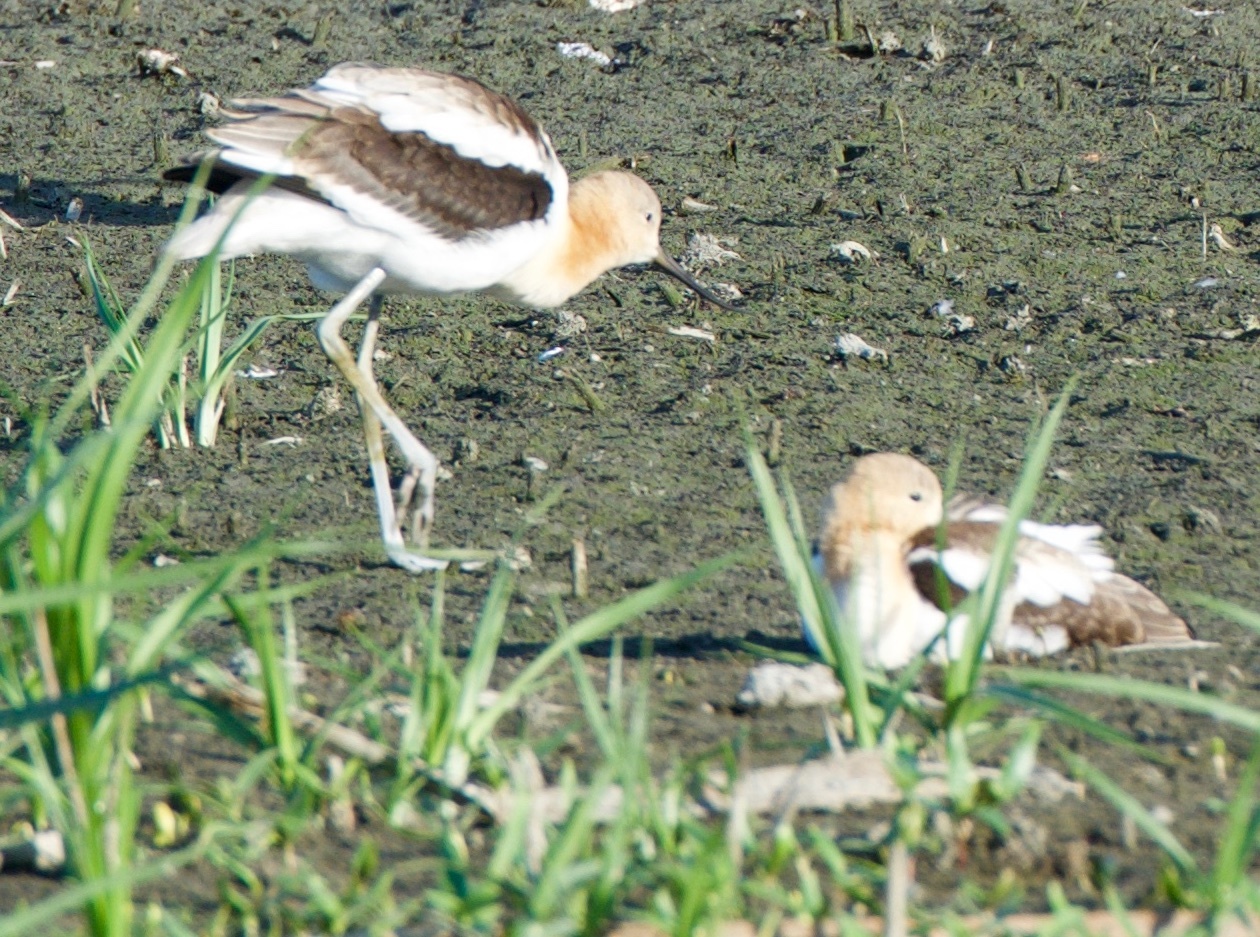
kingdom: Animalia
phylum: Chordata
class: Aves
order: Charadriiformes
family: Recurvirostridae
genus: Recurvirostra
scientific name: Recurvirostra americana
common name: American avocet
